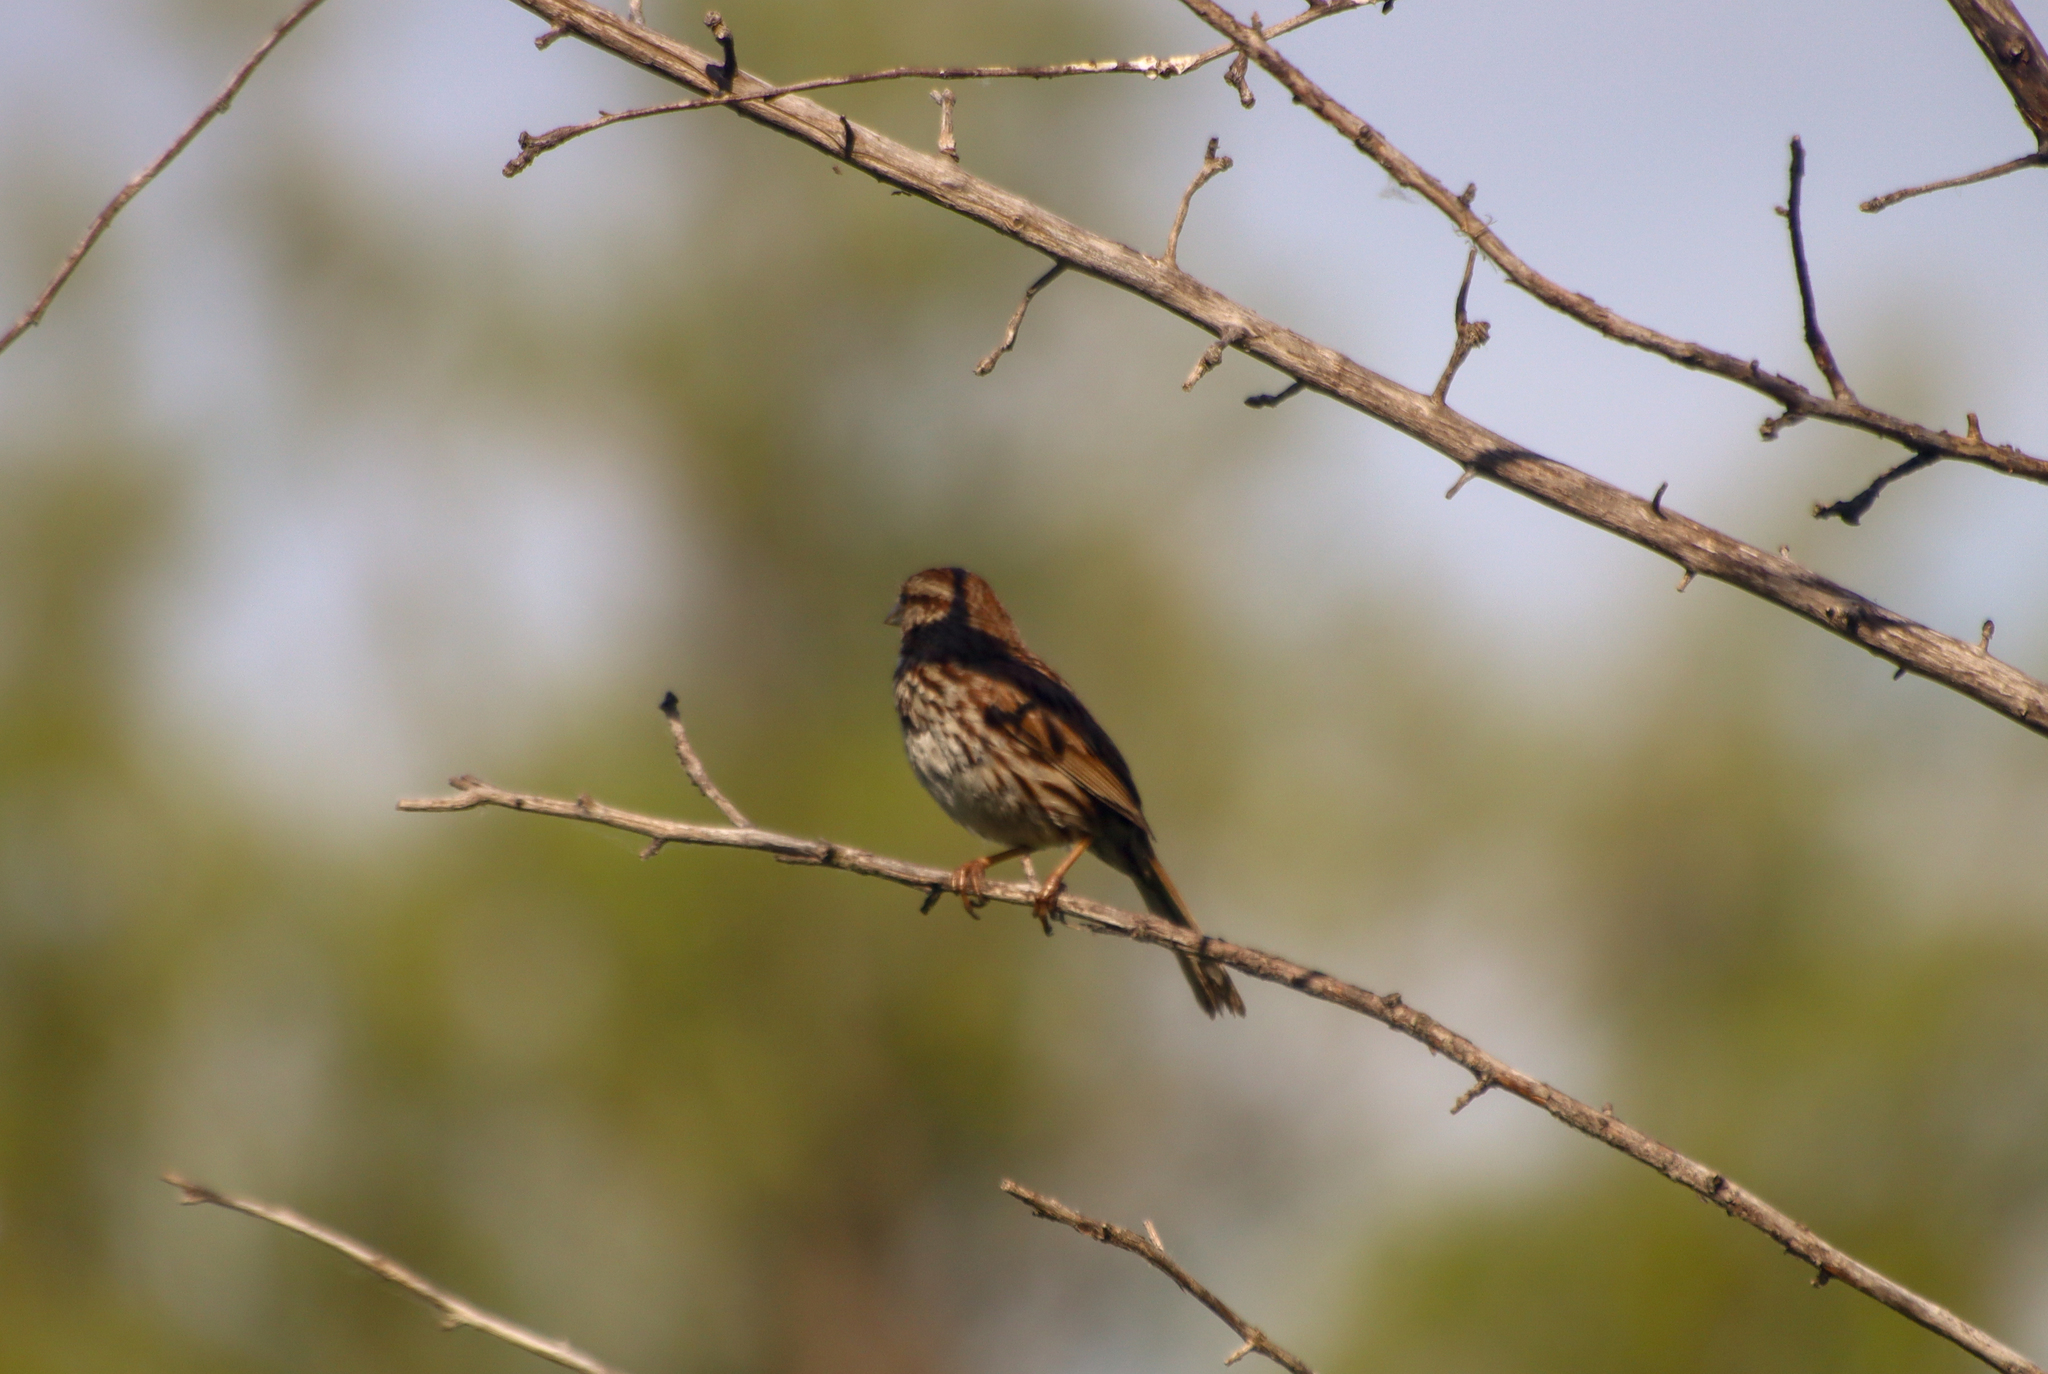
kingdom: Animalia
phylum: Chordata
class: Aves
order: Passeriformes
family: Passerellidae
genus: Melospiza
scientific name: Melospiza melodia
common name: Song sparrow
